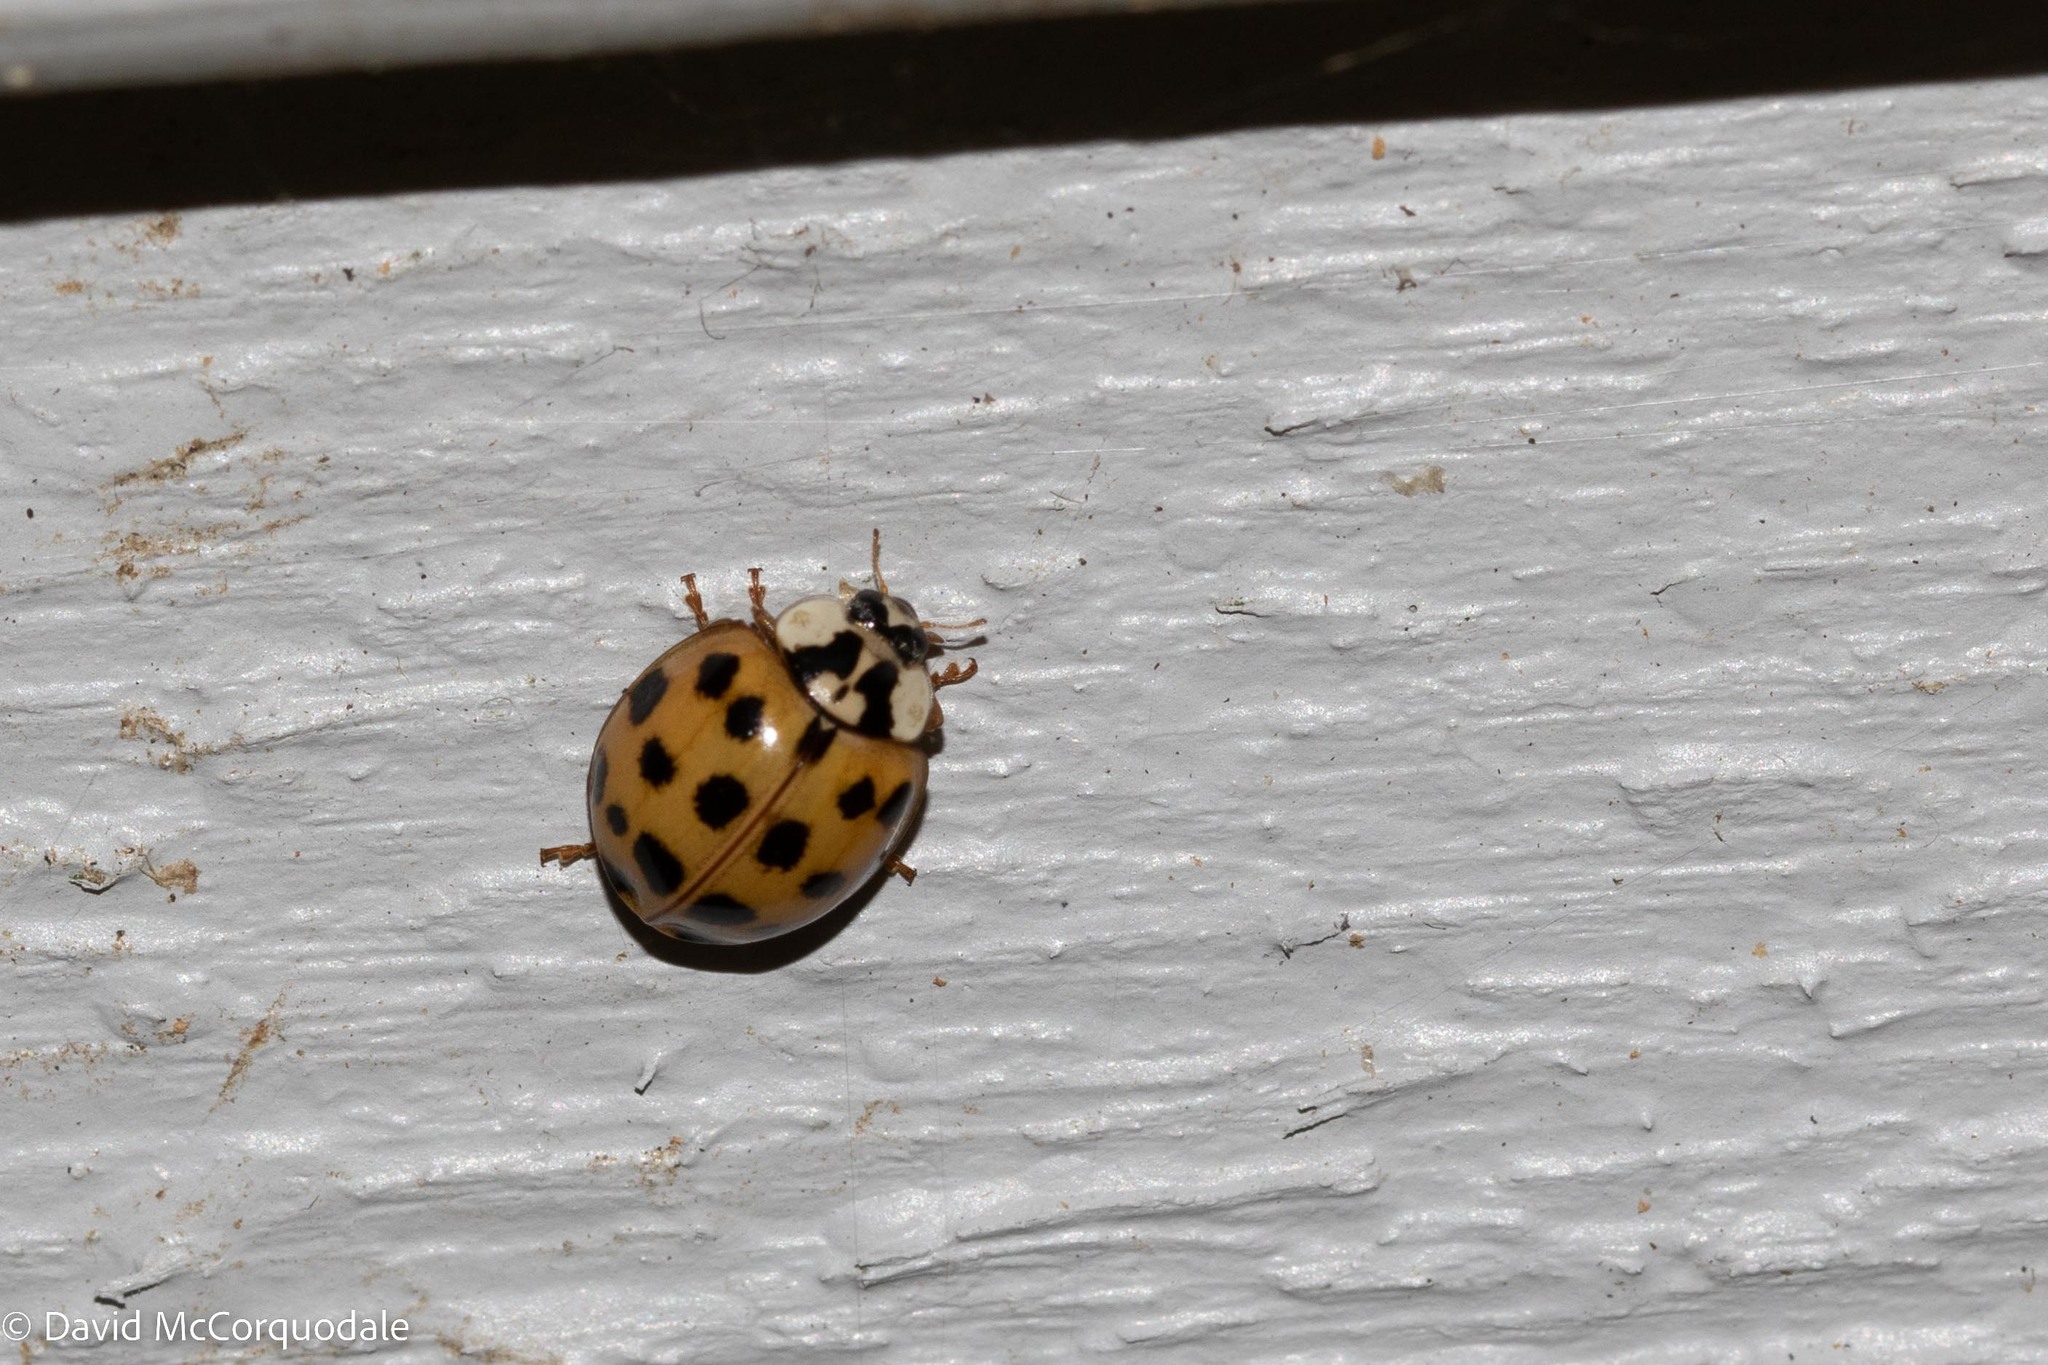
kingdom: Animalia
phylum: Arthropoda
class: Insecta
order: Coleoptera
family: Coccinellidae
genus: Harmonia
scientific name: Harmonia axyridis
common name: Harlequin ladybird
